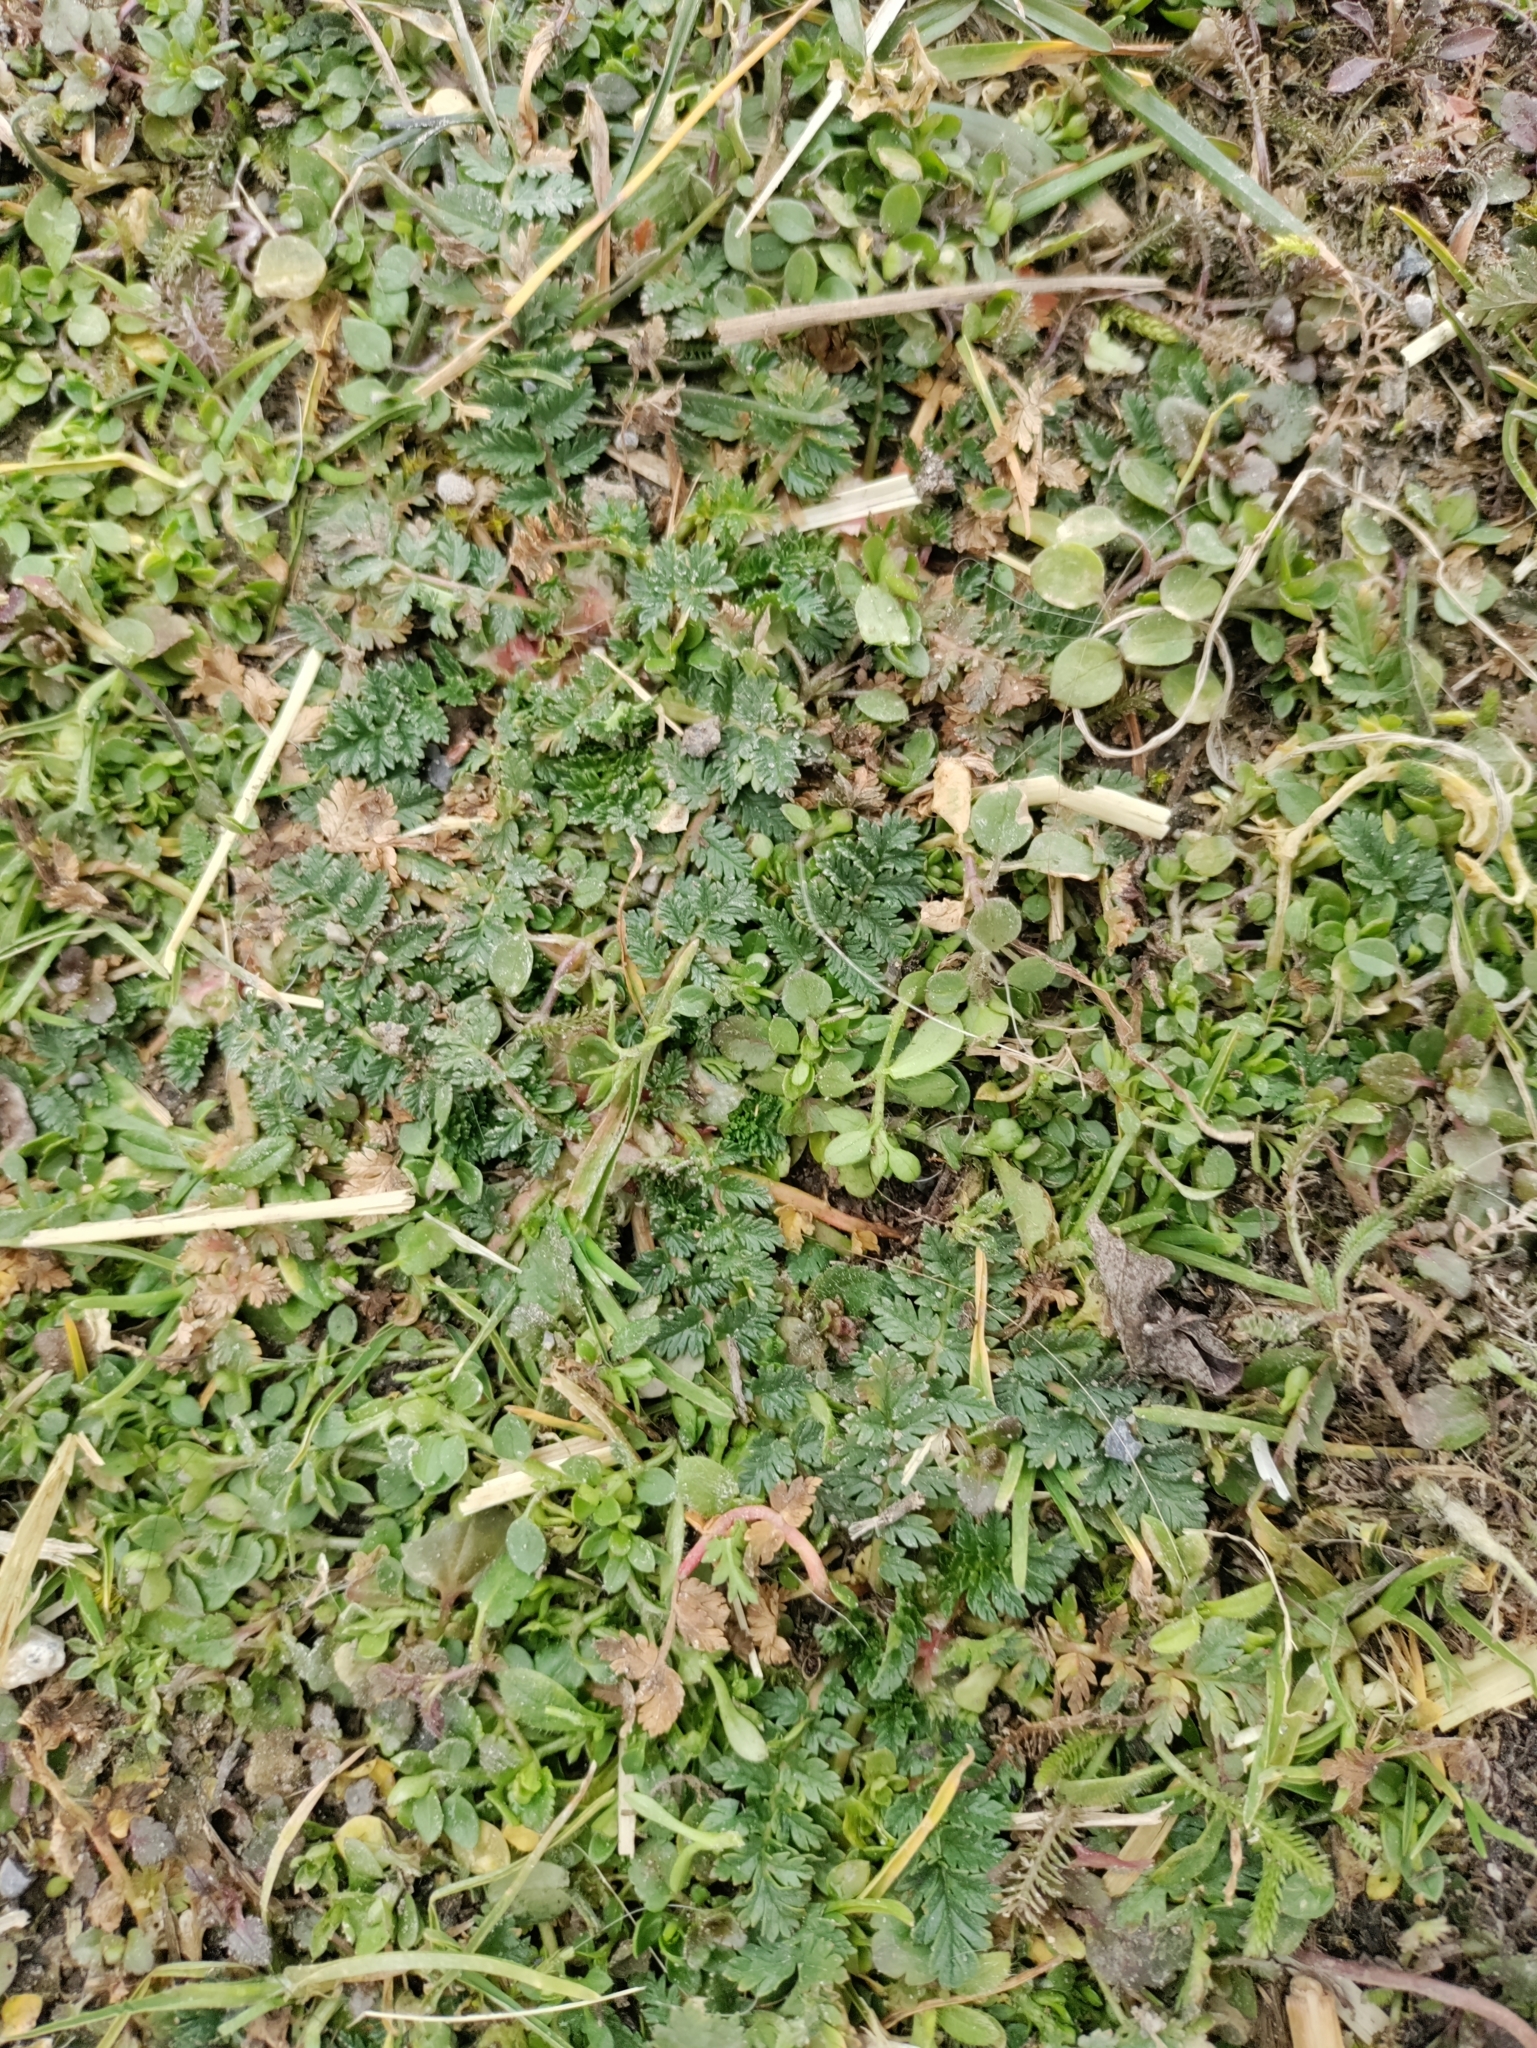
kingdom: Plantae
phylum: Tracheophyta
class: Magnoliopsida
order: Geraniales
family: Geraniaceae
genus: Erodium
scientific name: Erodium cicutarium
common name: Common stork's-bill
